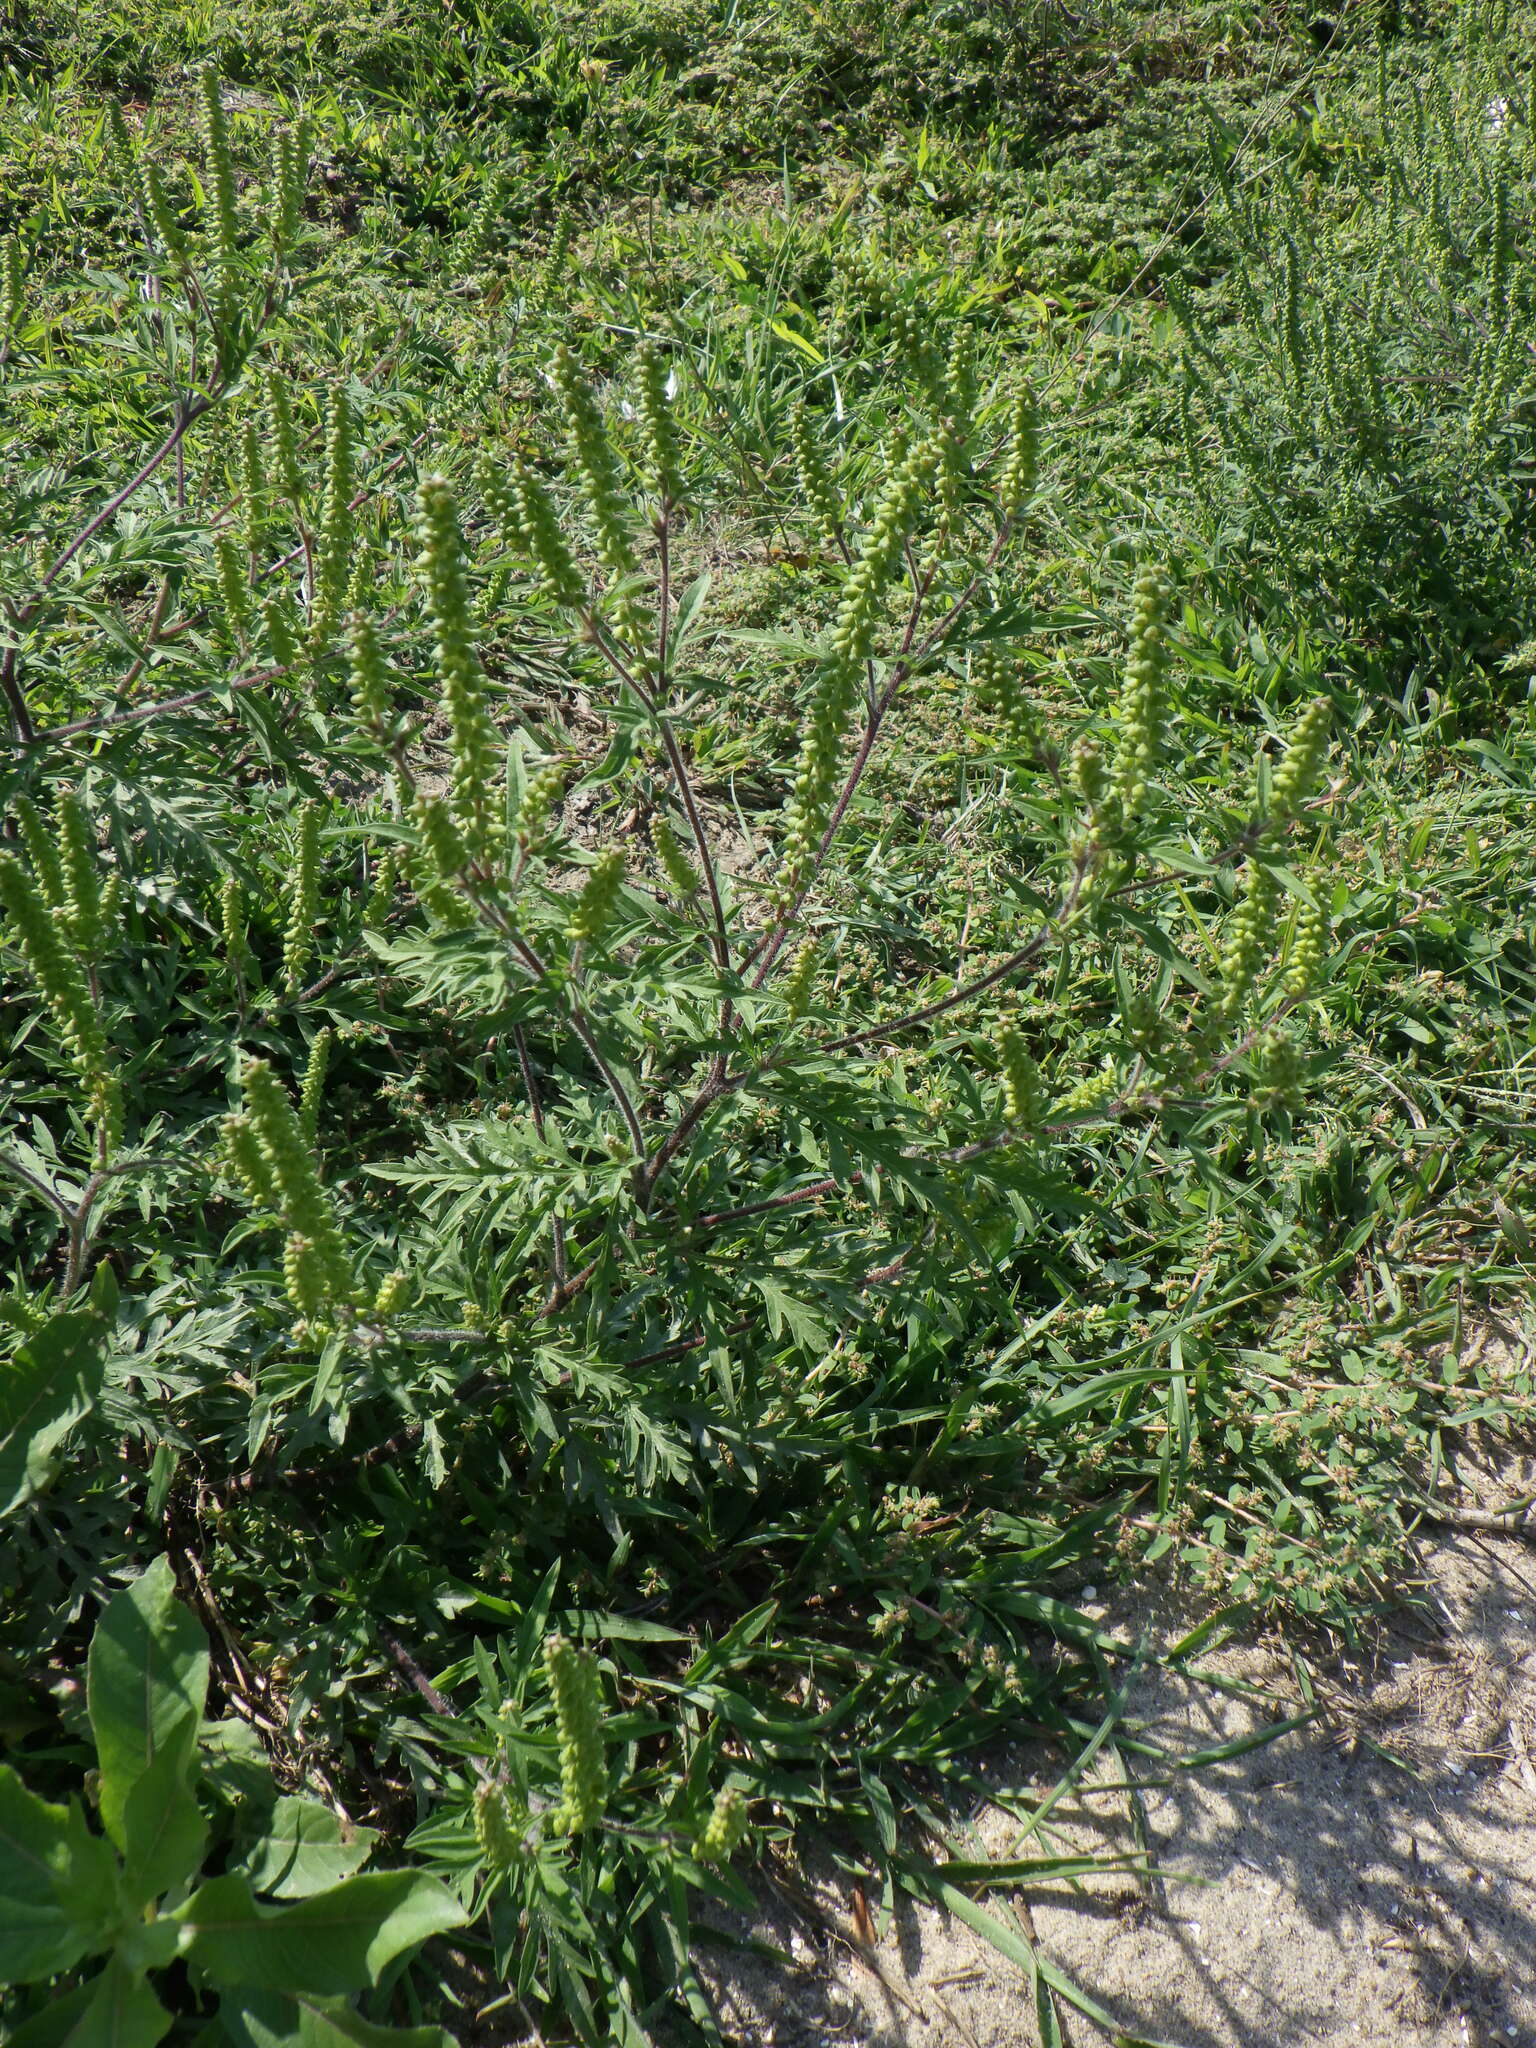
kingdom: Plantae
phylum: Tracheophyta
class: Magnoliopsida
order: Asterales
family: Asteraceae
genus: Ambrosia
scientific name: Ambrosia artemisiifolia
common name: Annual ragweed
